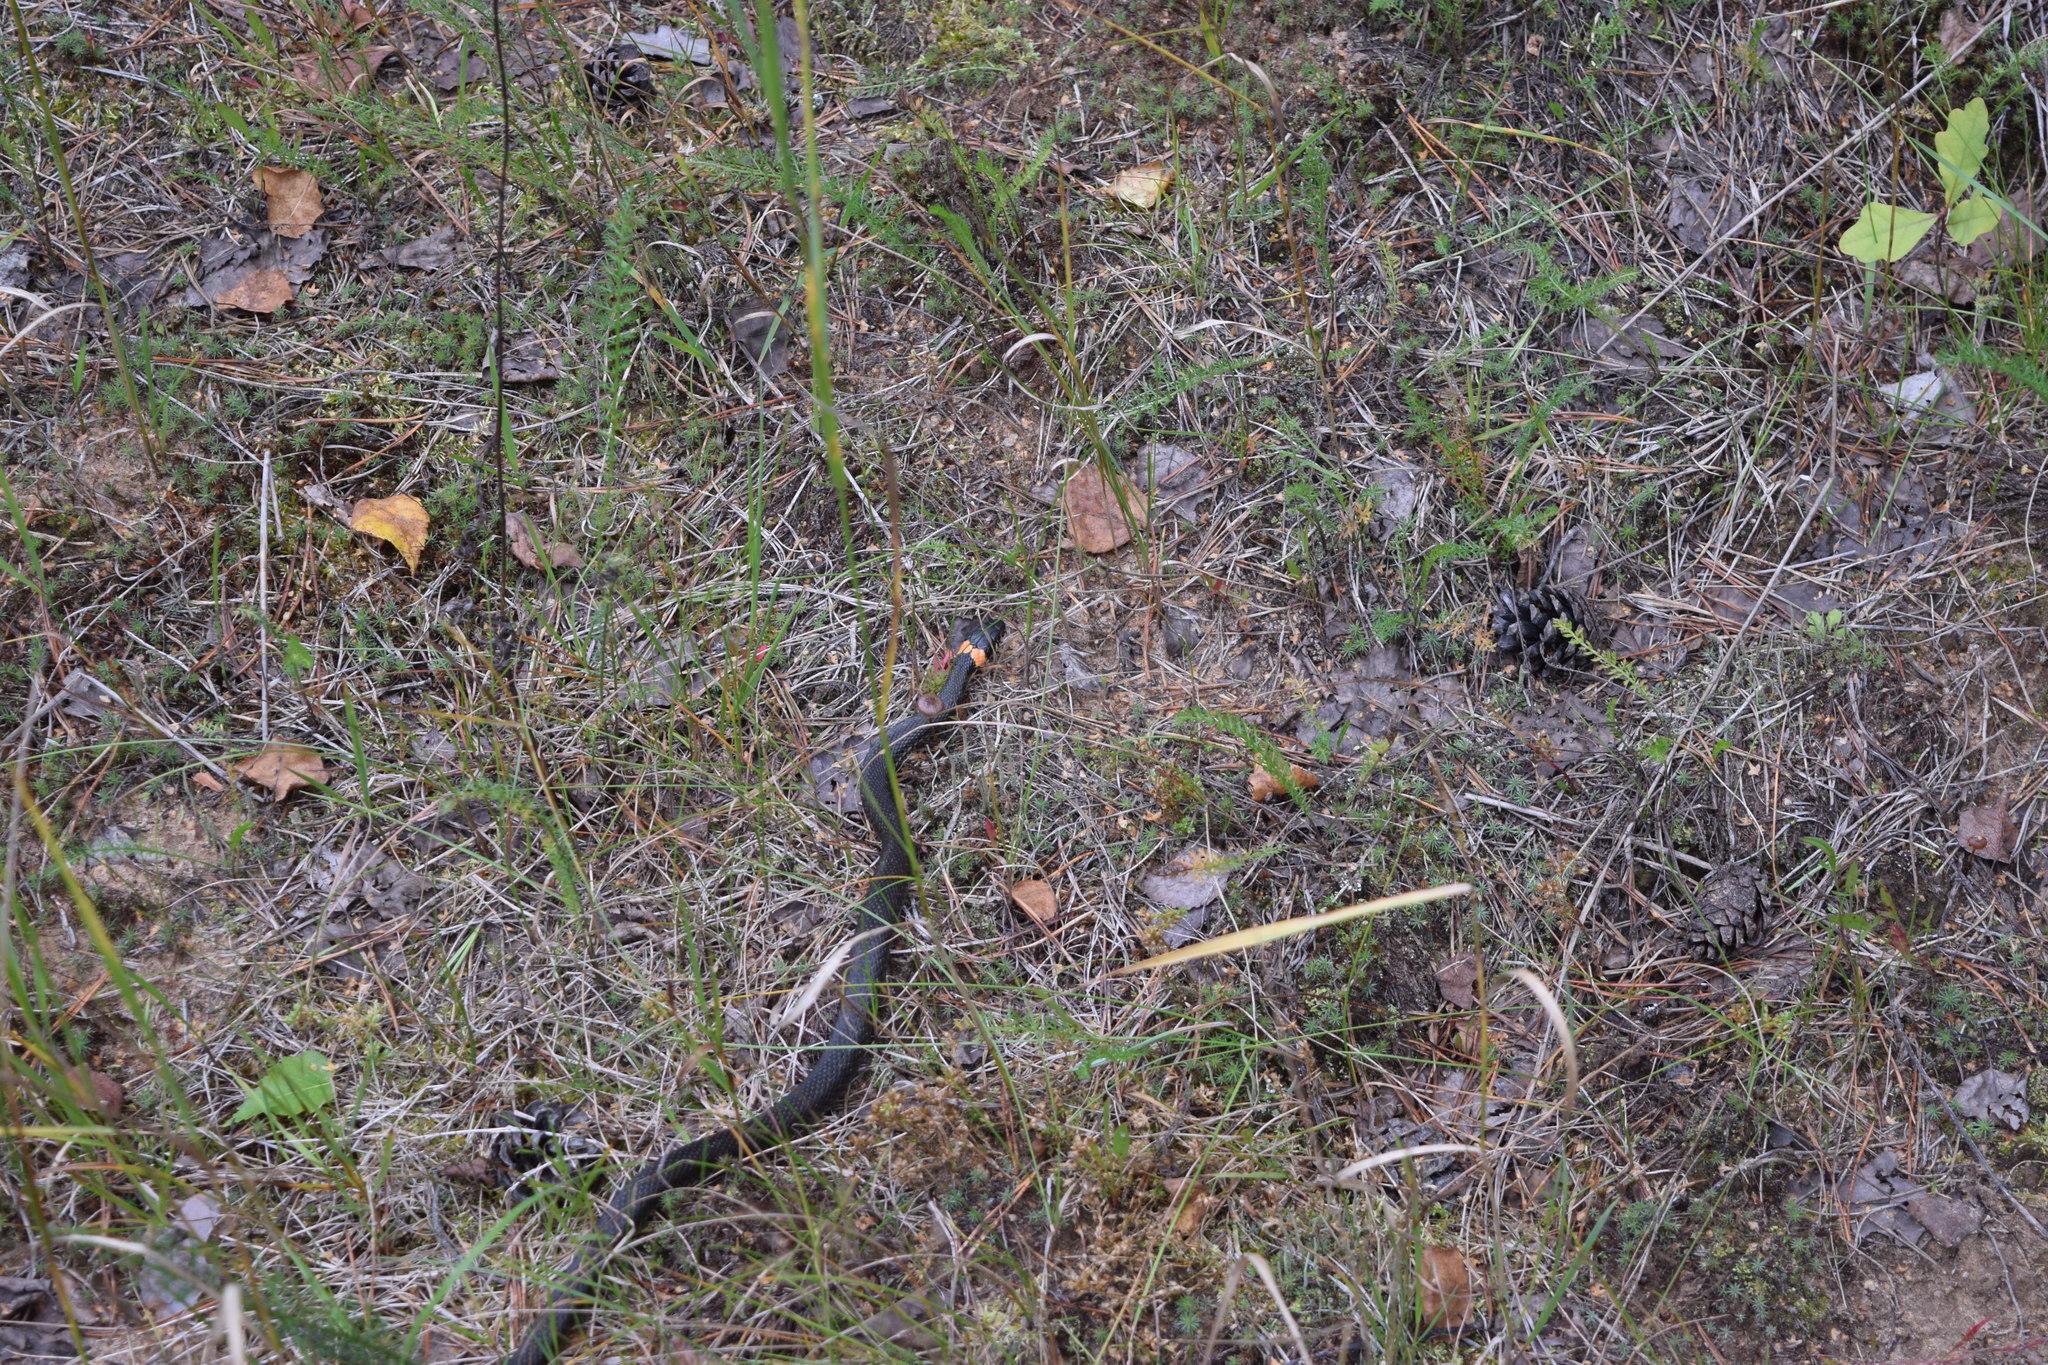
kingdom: Animalia
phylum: Chordata
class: Squamata
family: Colubridae
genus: Natrix
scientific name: Natrix natrix
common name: Grass snake
